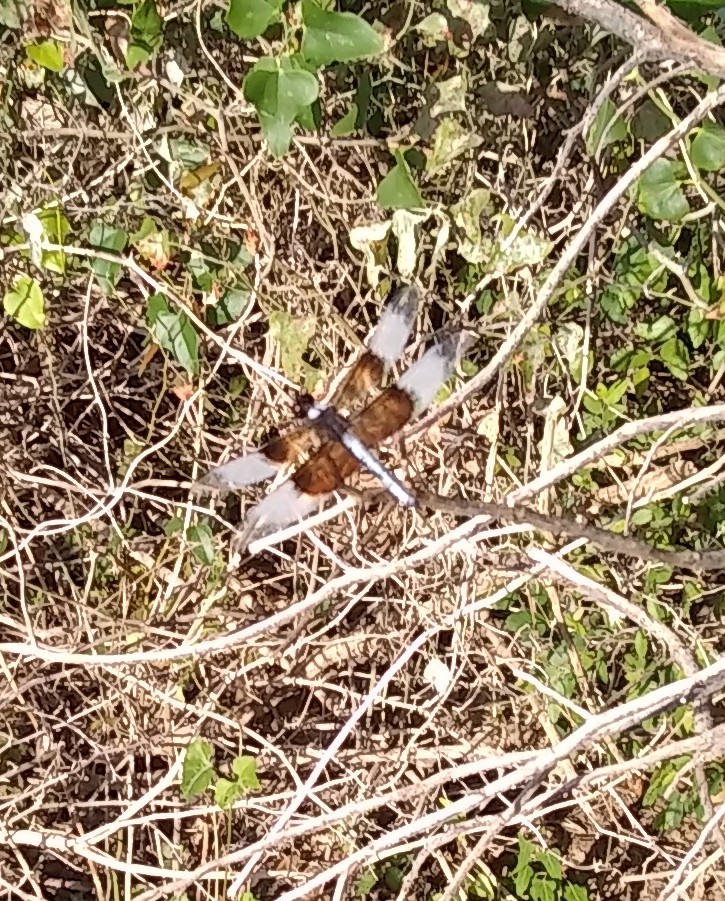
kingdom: Animalia
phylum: Arthropoda
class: Insecta
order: Odonata
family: Libellulidae
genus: Libellula
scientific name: Libellula luctuosa
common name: Widow skimmer
